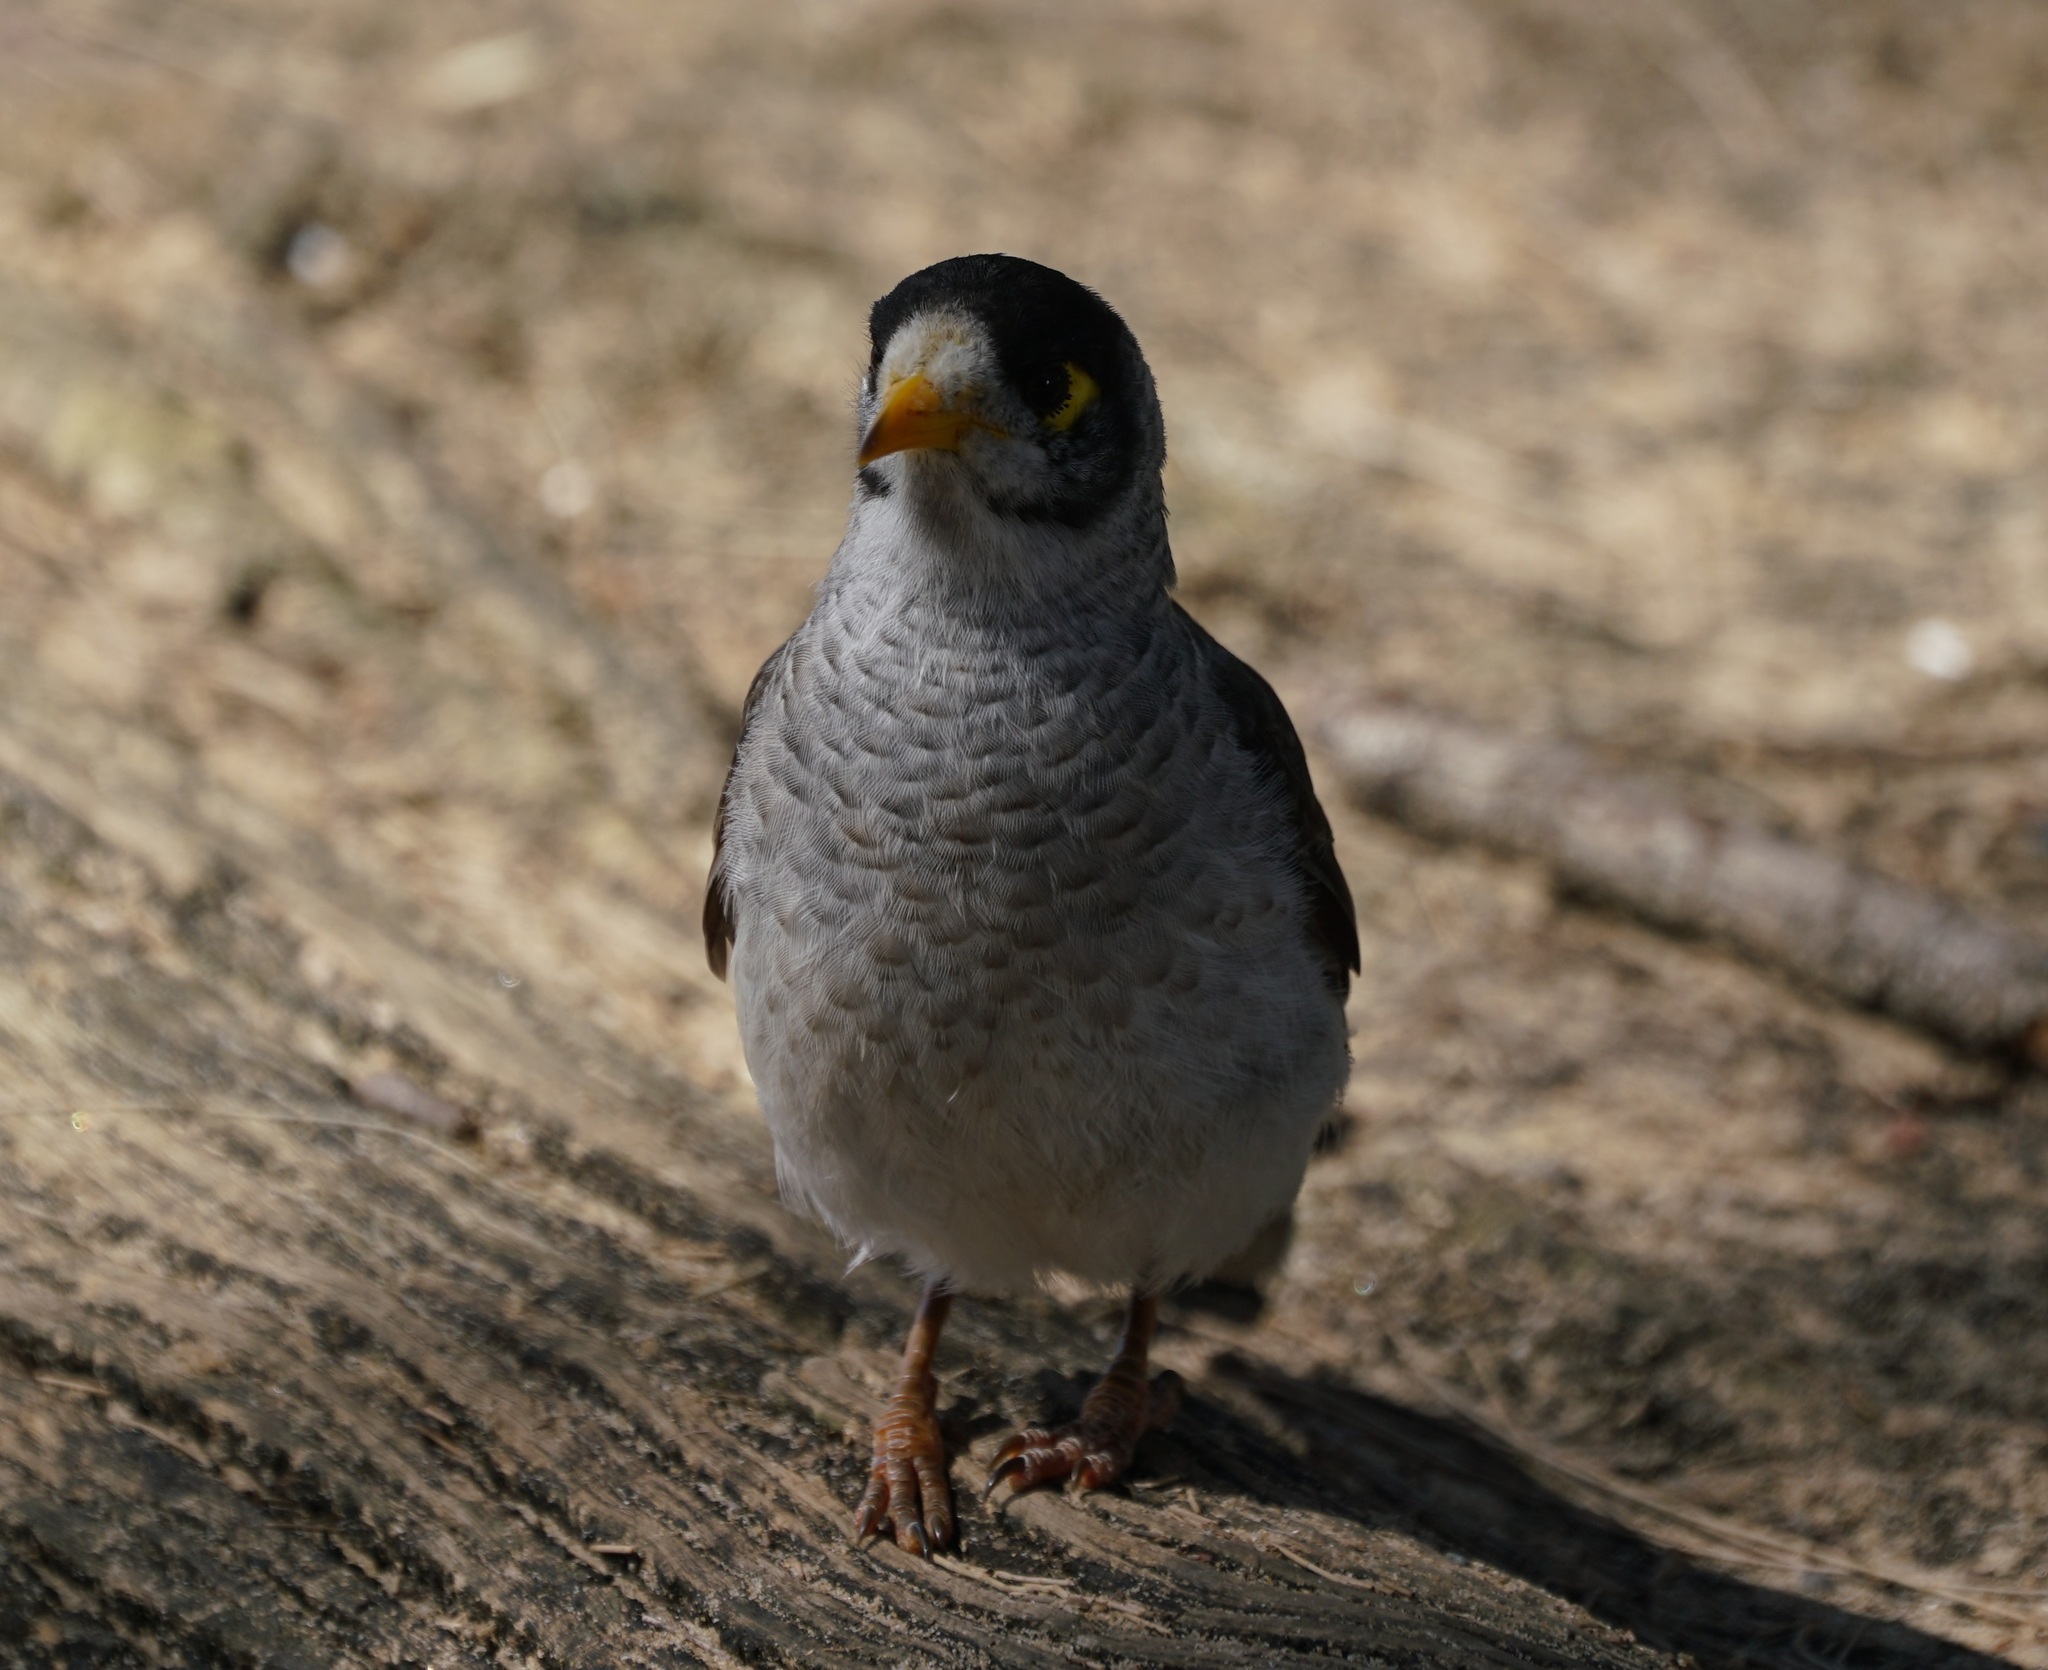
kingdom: Animalia
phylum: Chordata
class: Aves
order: Passeriformes
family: Meliphagidae
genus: Manorina
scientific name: Manorina melanocephala
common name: Noisy miner
